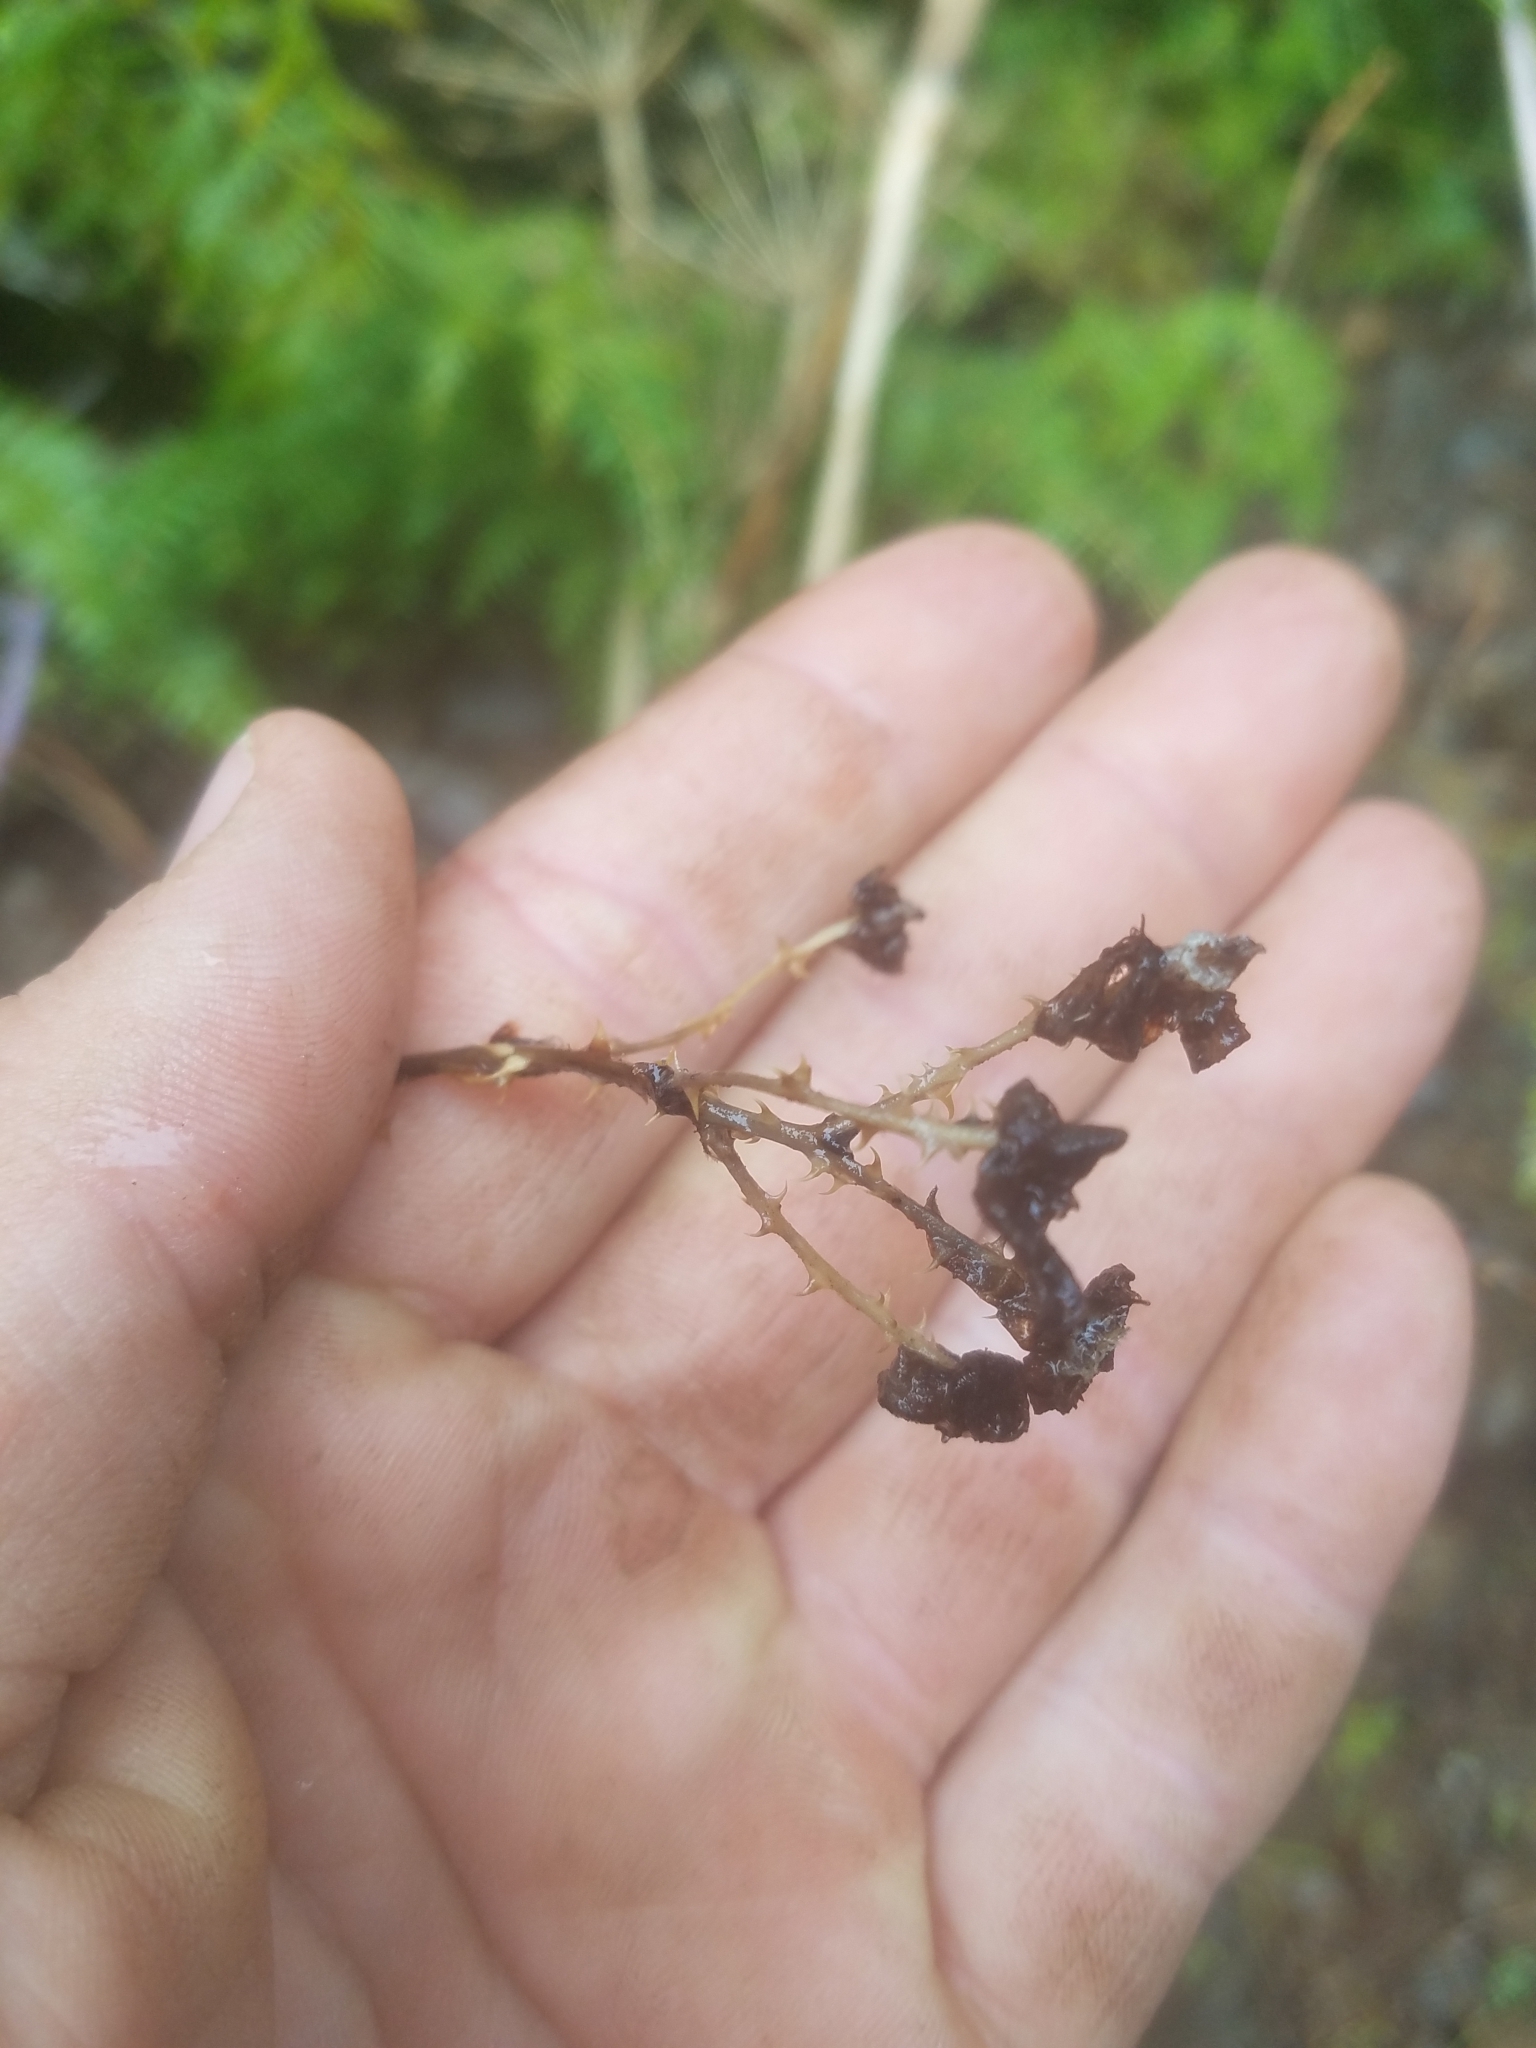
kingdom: Plantae
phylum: Tracheophyta
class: Magnoliopsida
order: Rosales
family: Rosaceae
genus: Rubus
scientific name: Rubus leucodermis
